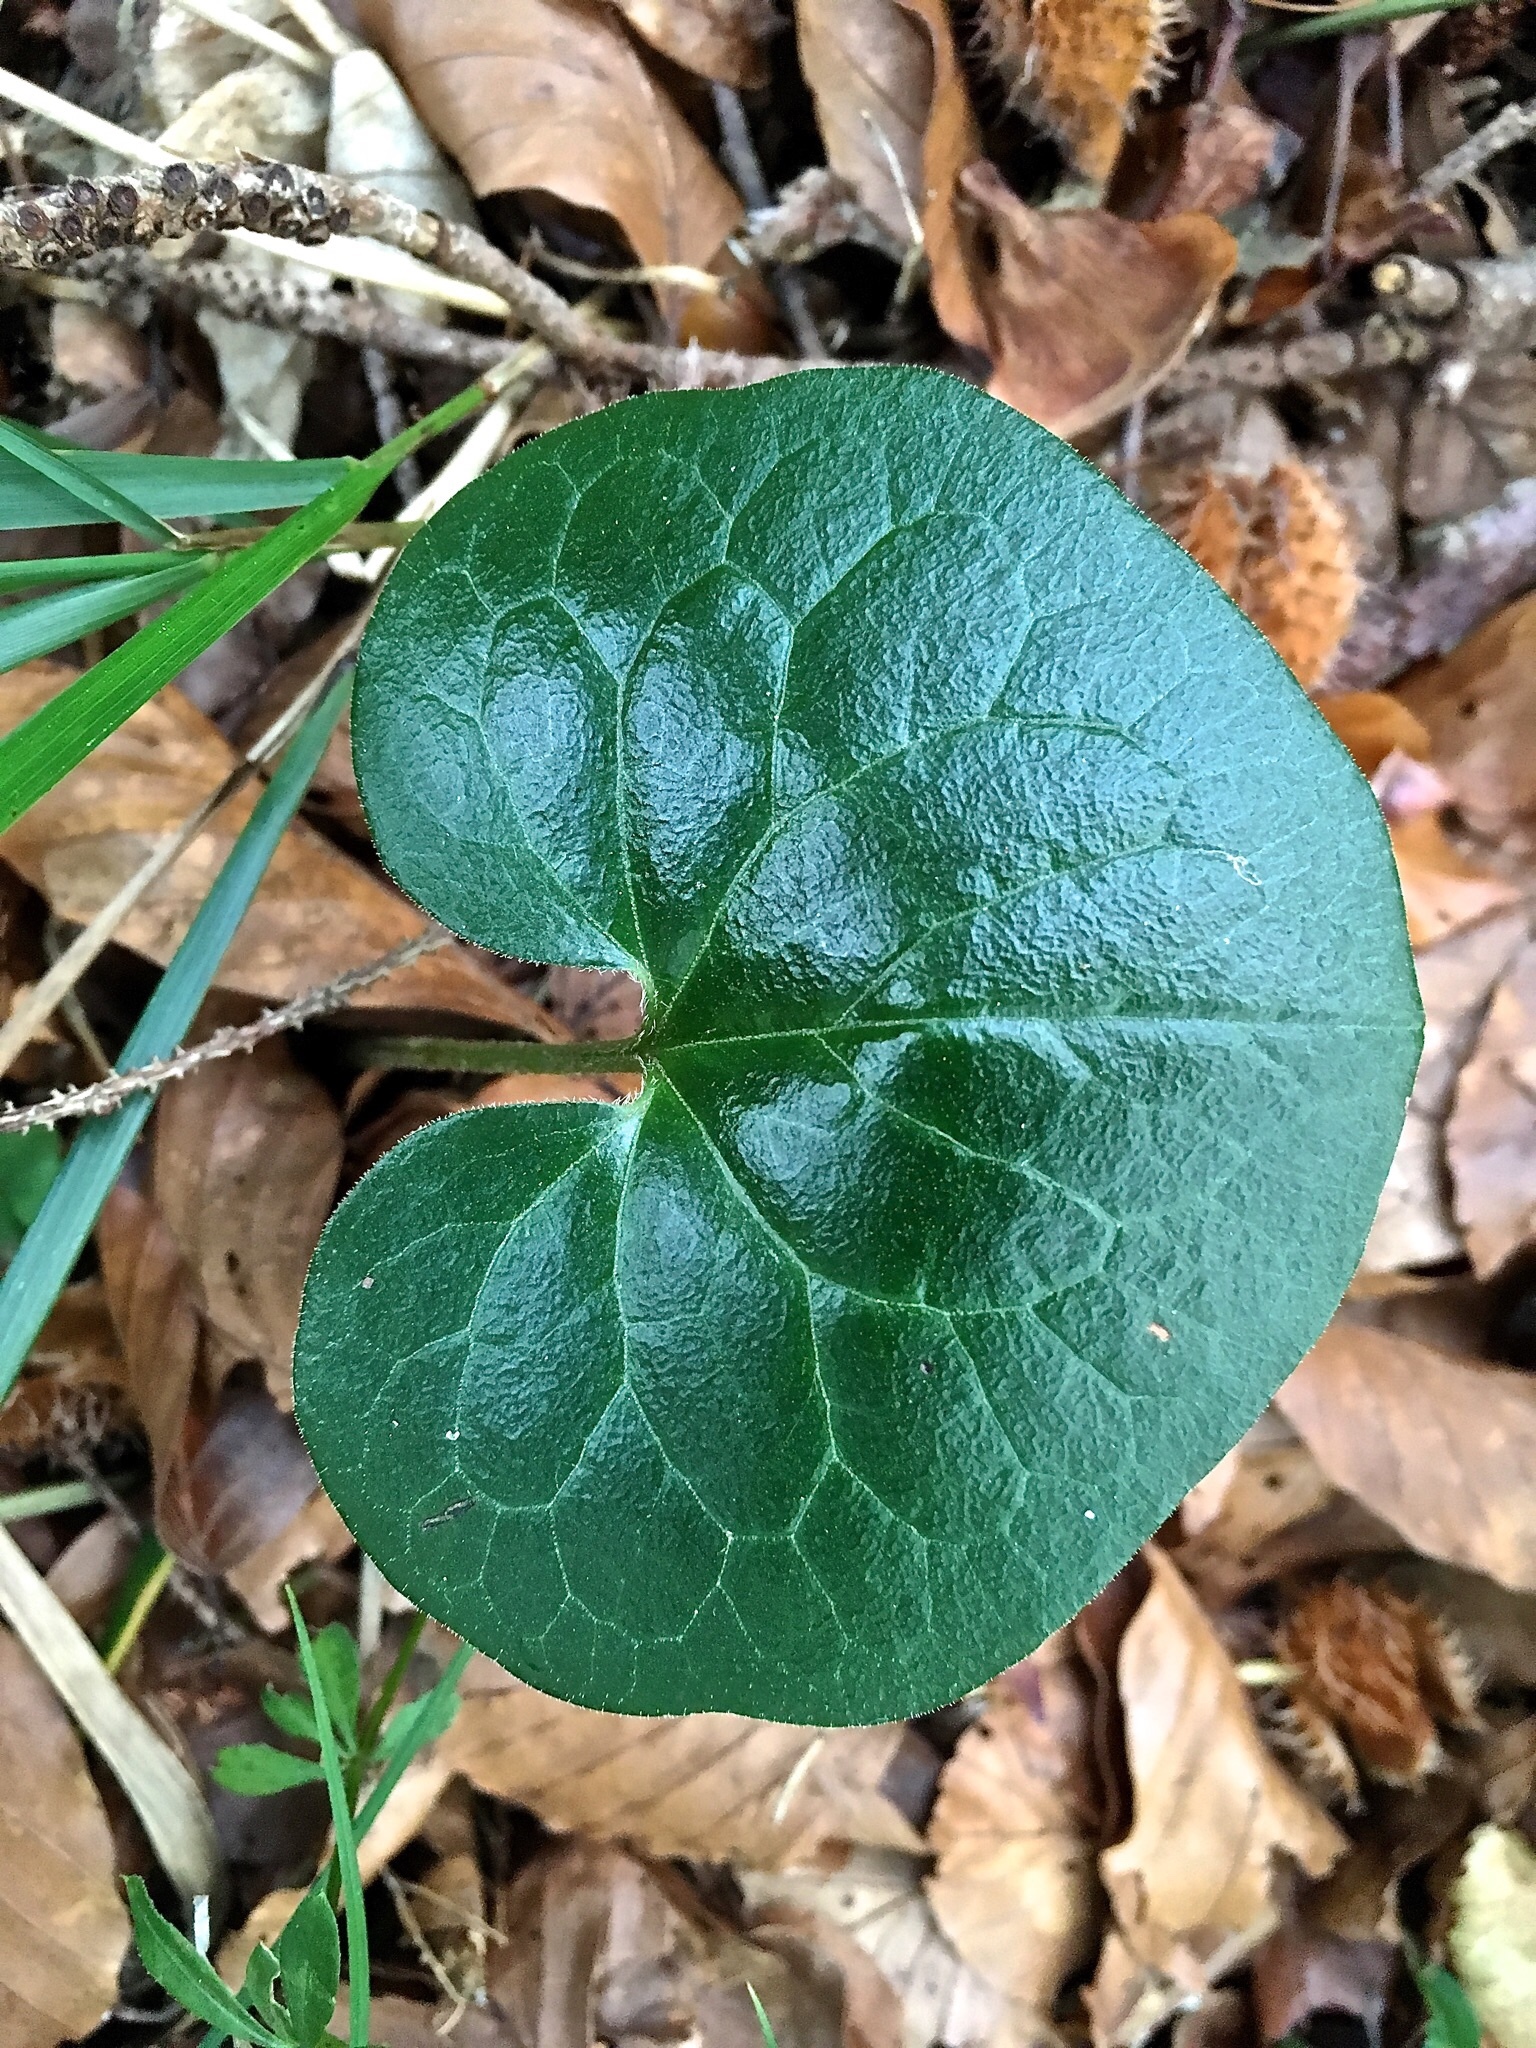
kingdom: Plantae
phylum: Tracheophyta
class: Magnoliopsida
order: Piperales
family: Aristolochiaceae
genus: Asarum
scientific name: Asarum europaeum
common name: Asarabacca
